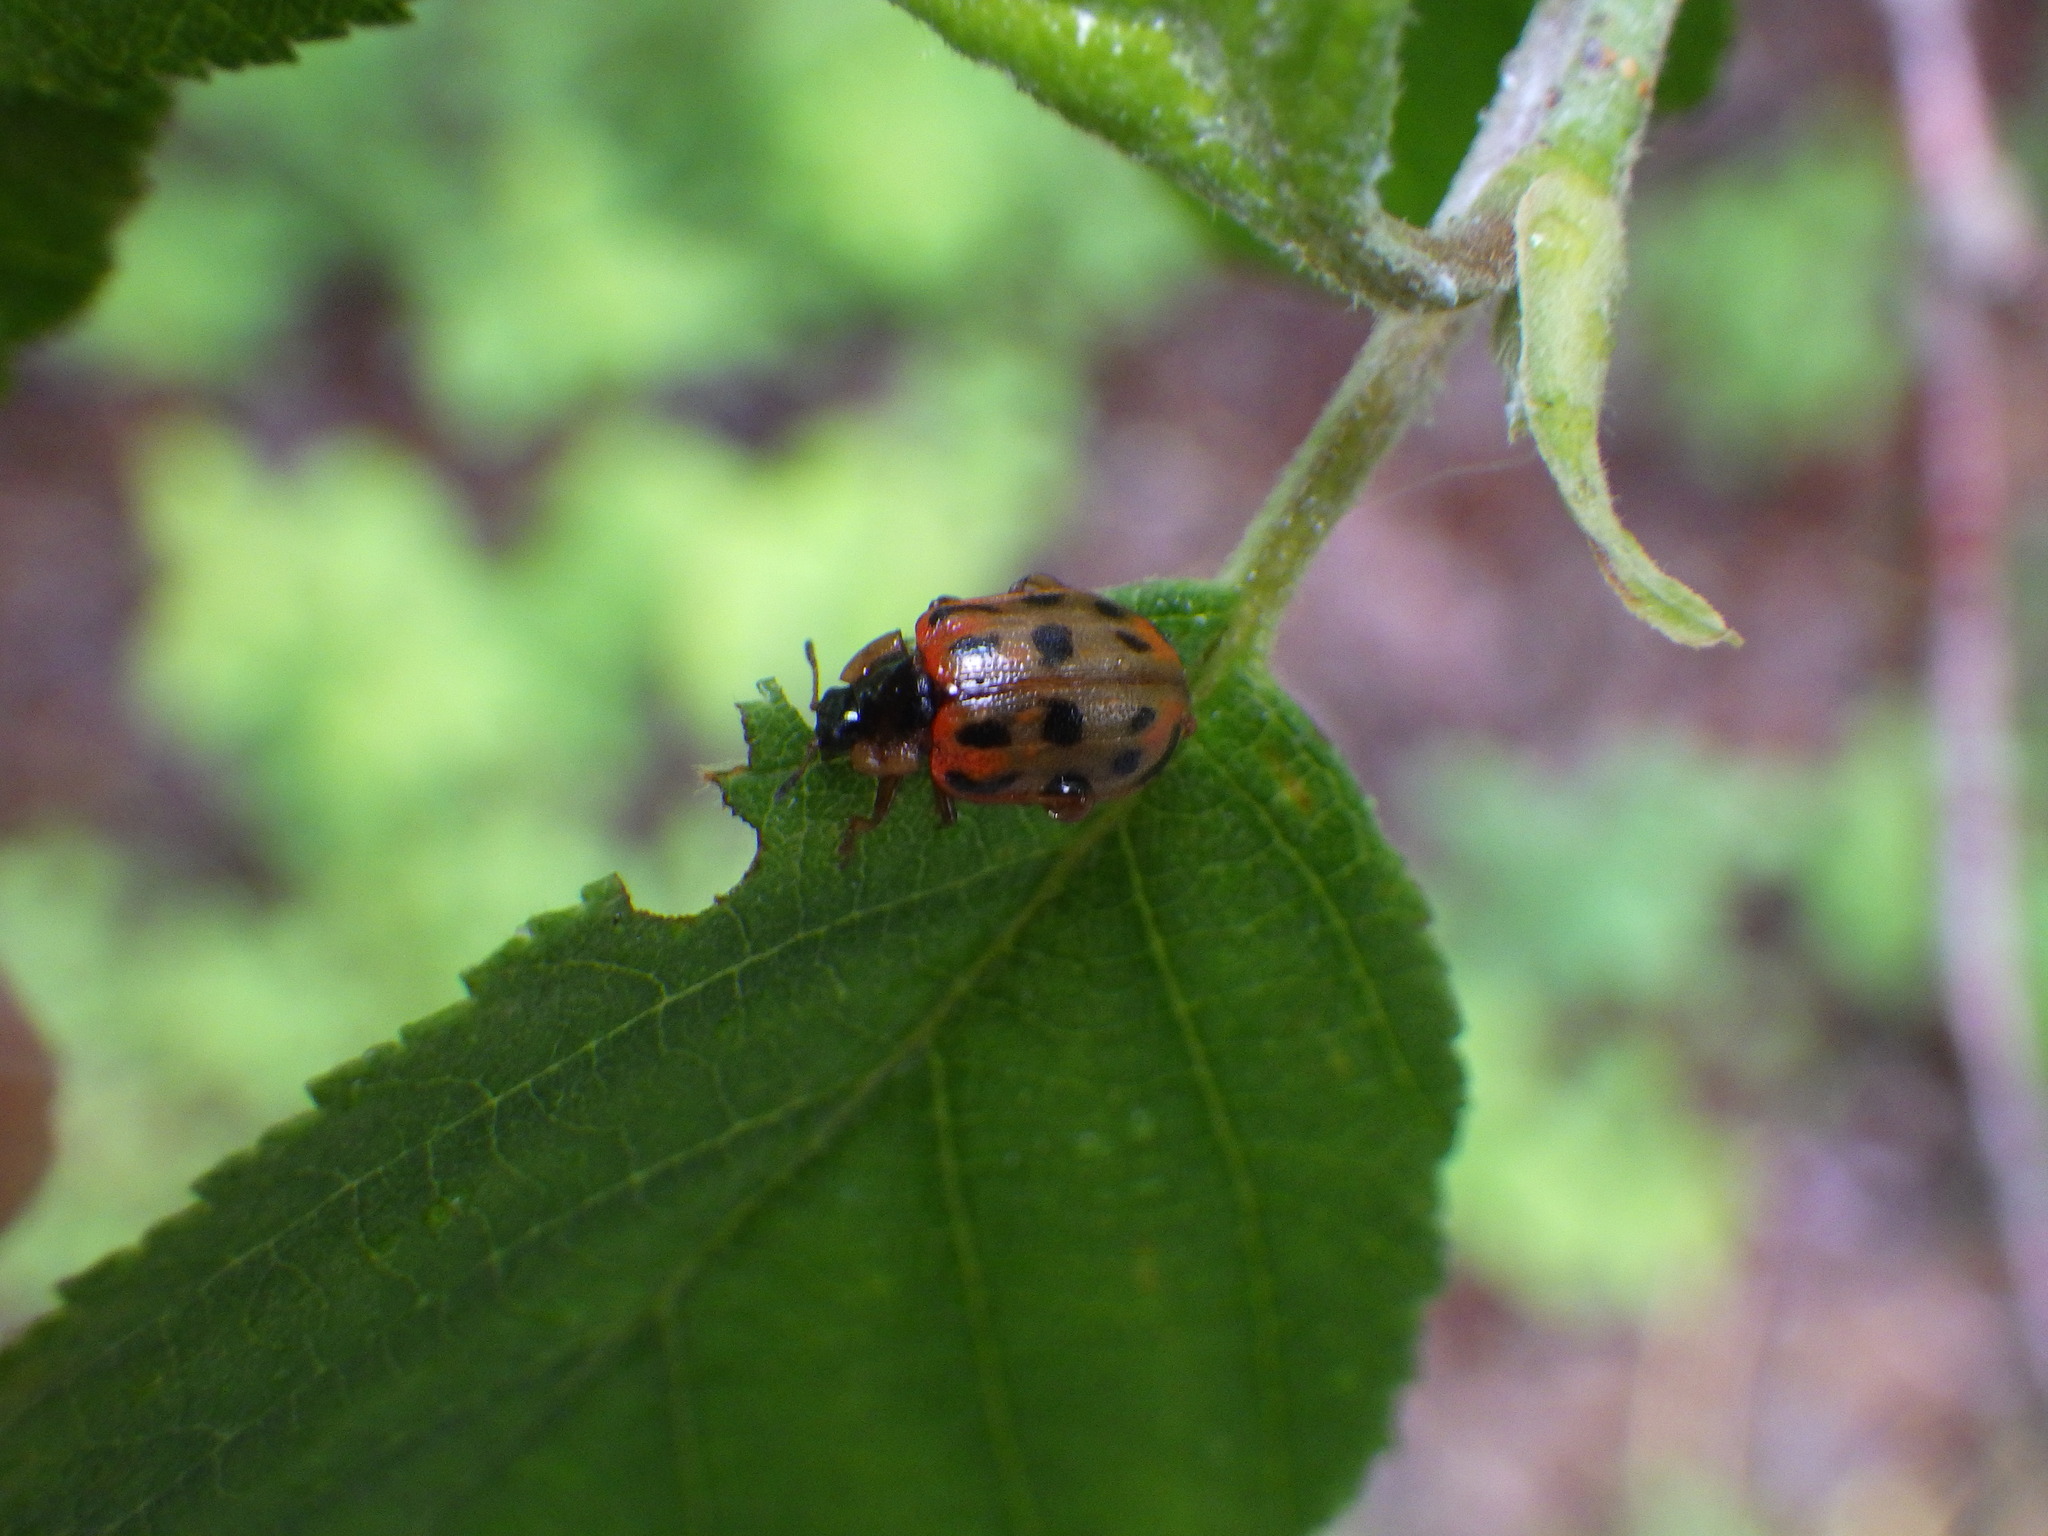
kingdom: Animalia
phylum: Arthropoda
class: Insecta
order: Coleoptera
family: Chrysomelidae
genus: Chrysomela
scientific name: Chrysomela mainensis
